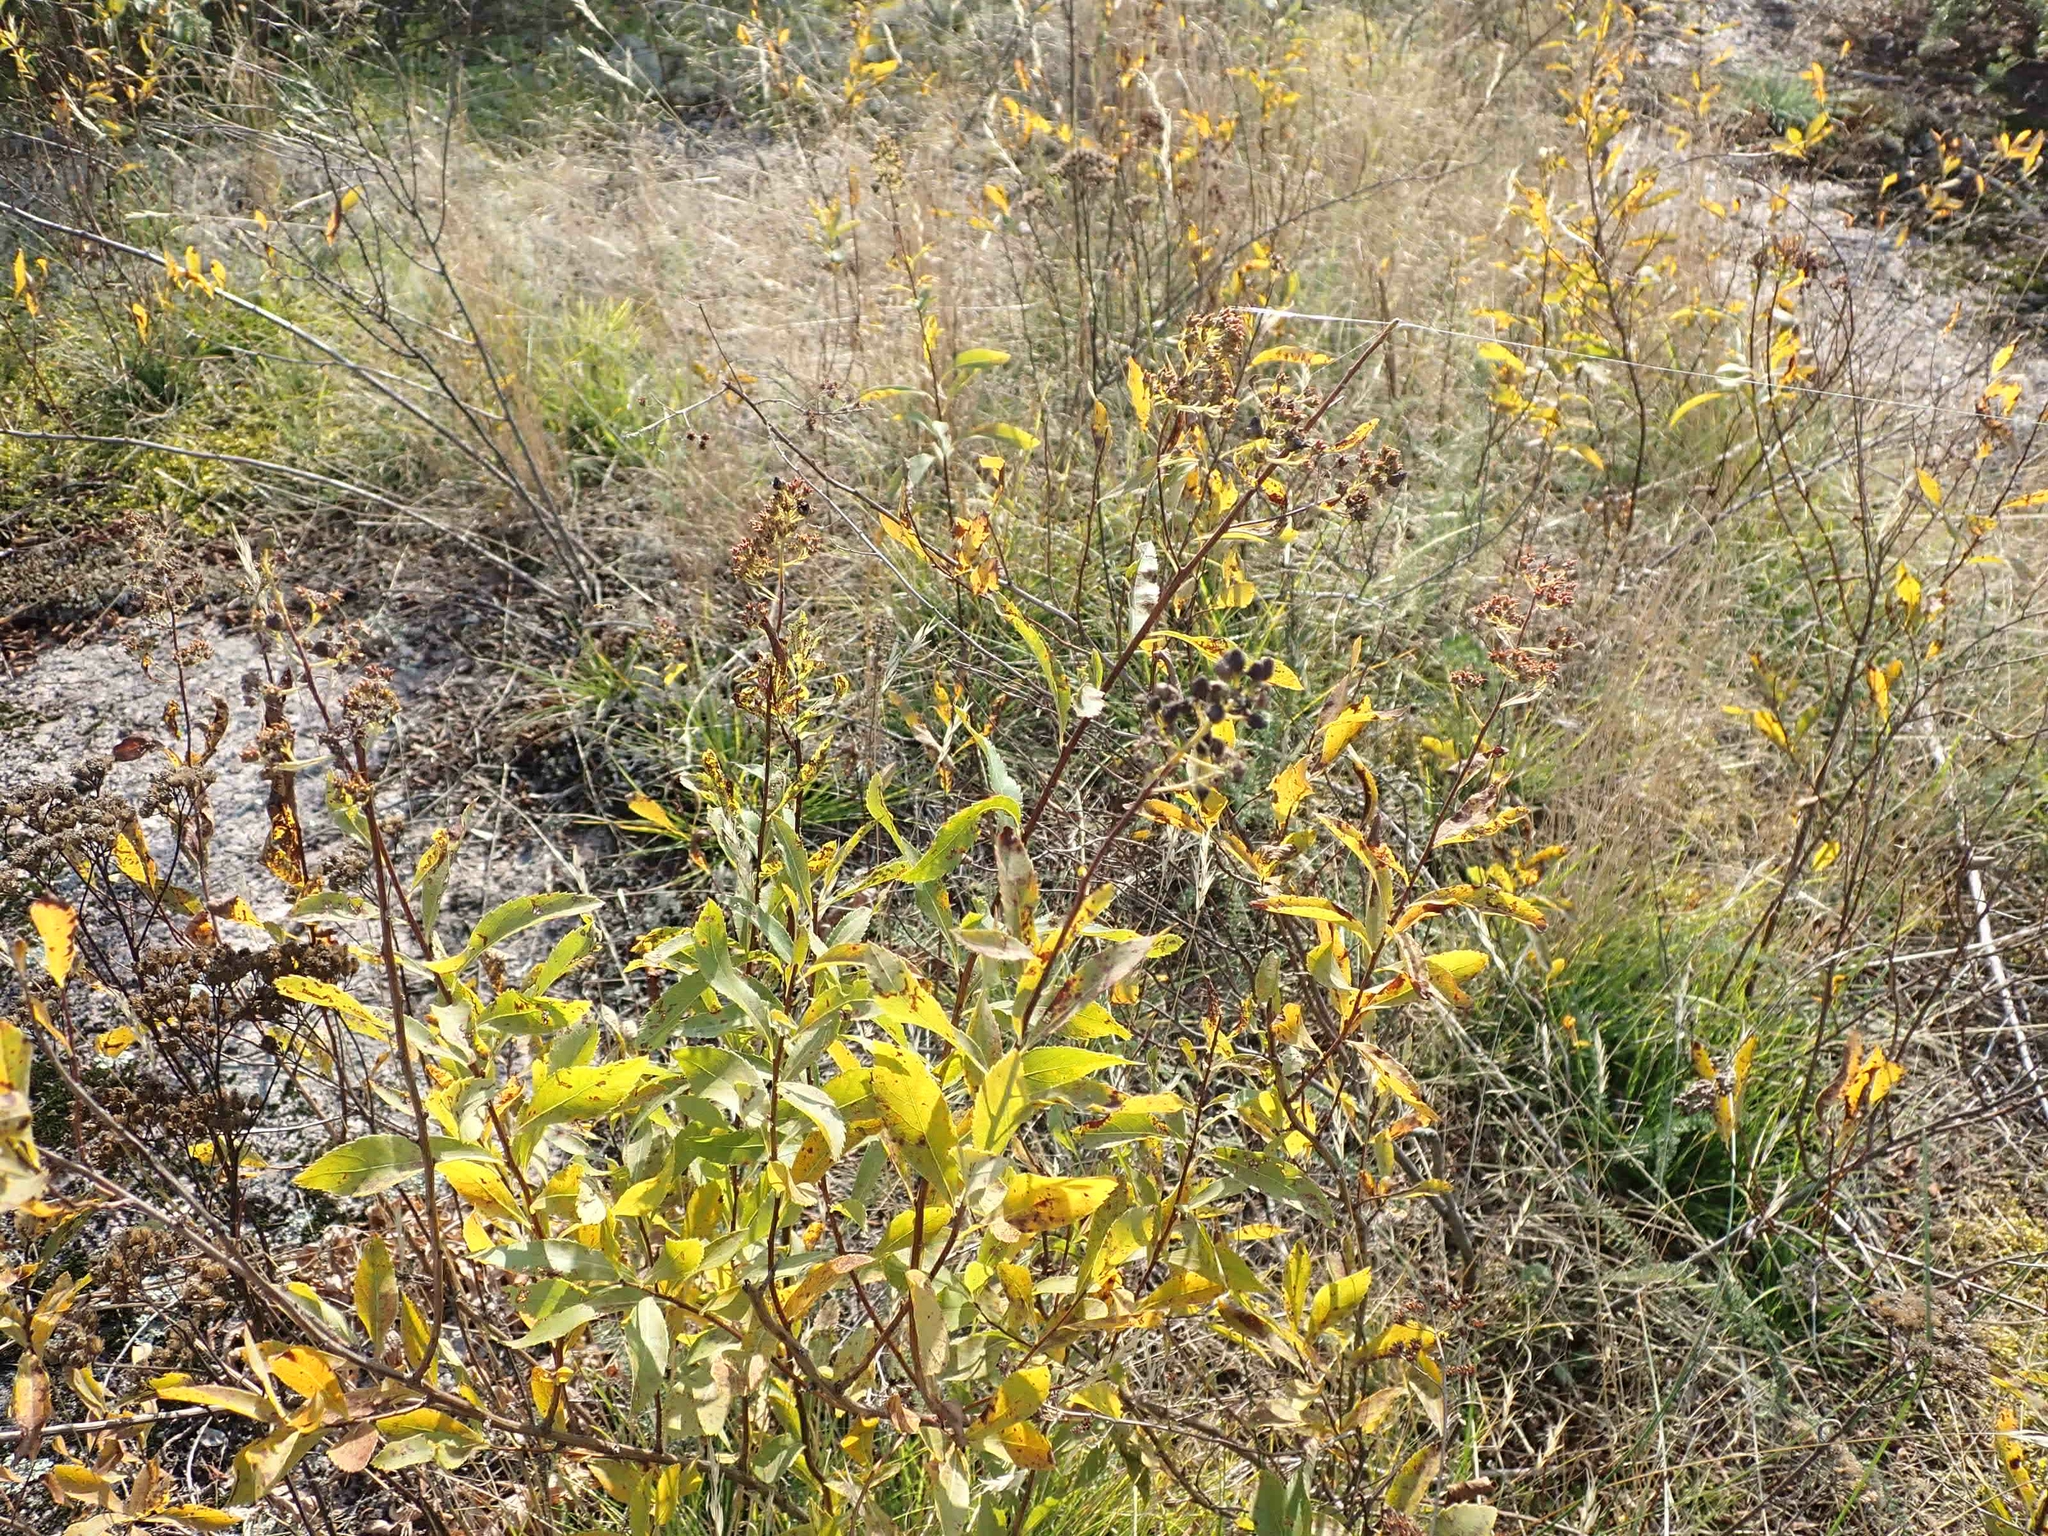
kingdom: Plantae
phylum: Tracheophyta
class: Magnoliopsida
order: Rosales
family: Rosaceae
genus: Spiraea
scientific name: Spiraea alba
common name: Pale bridewort
